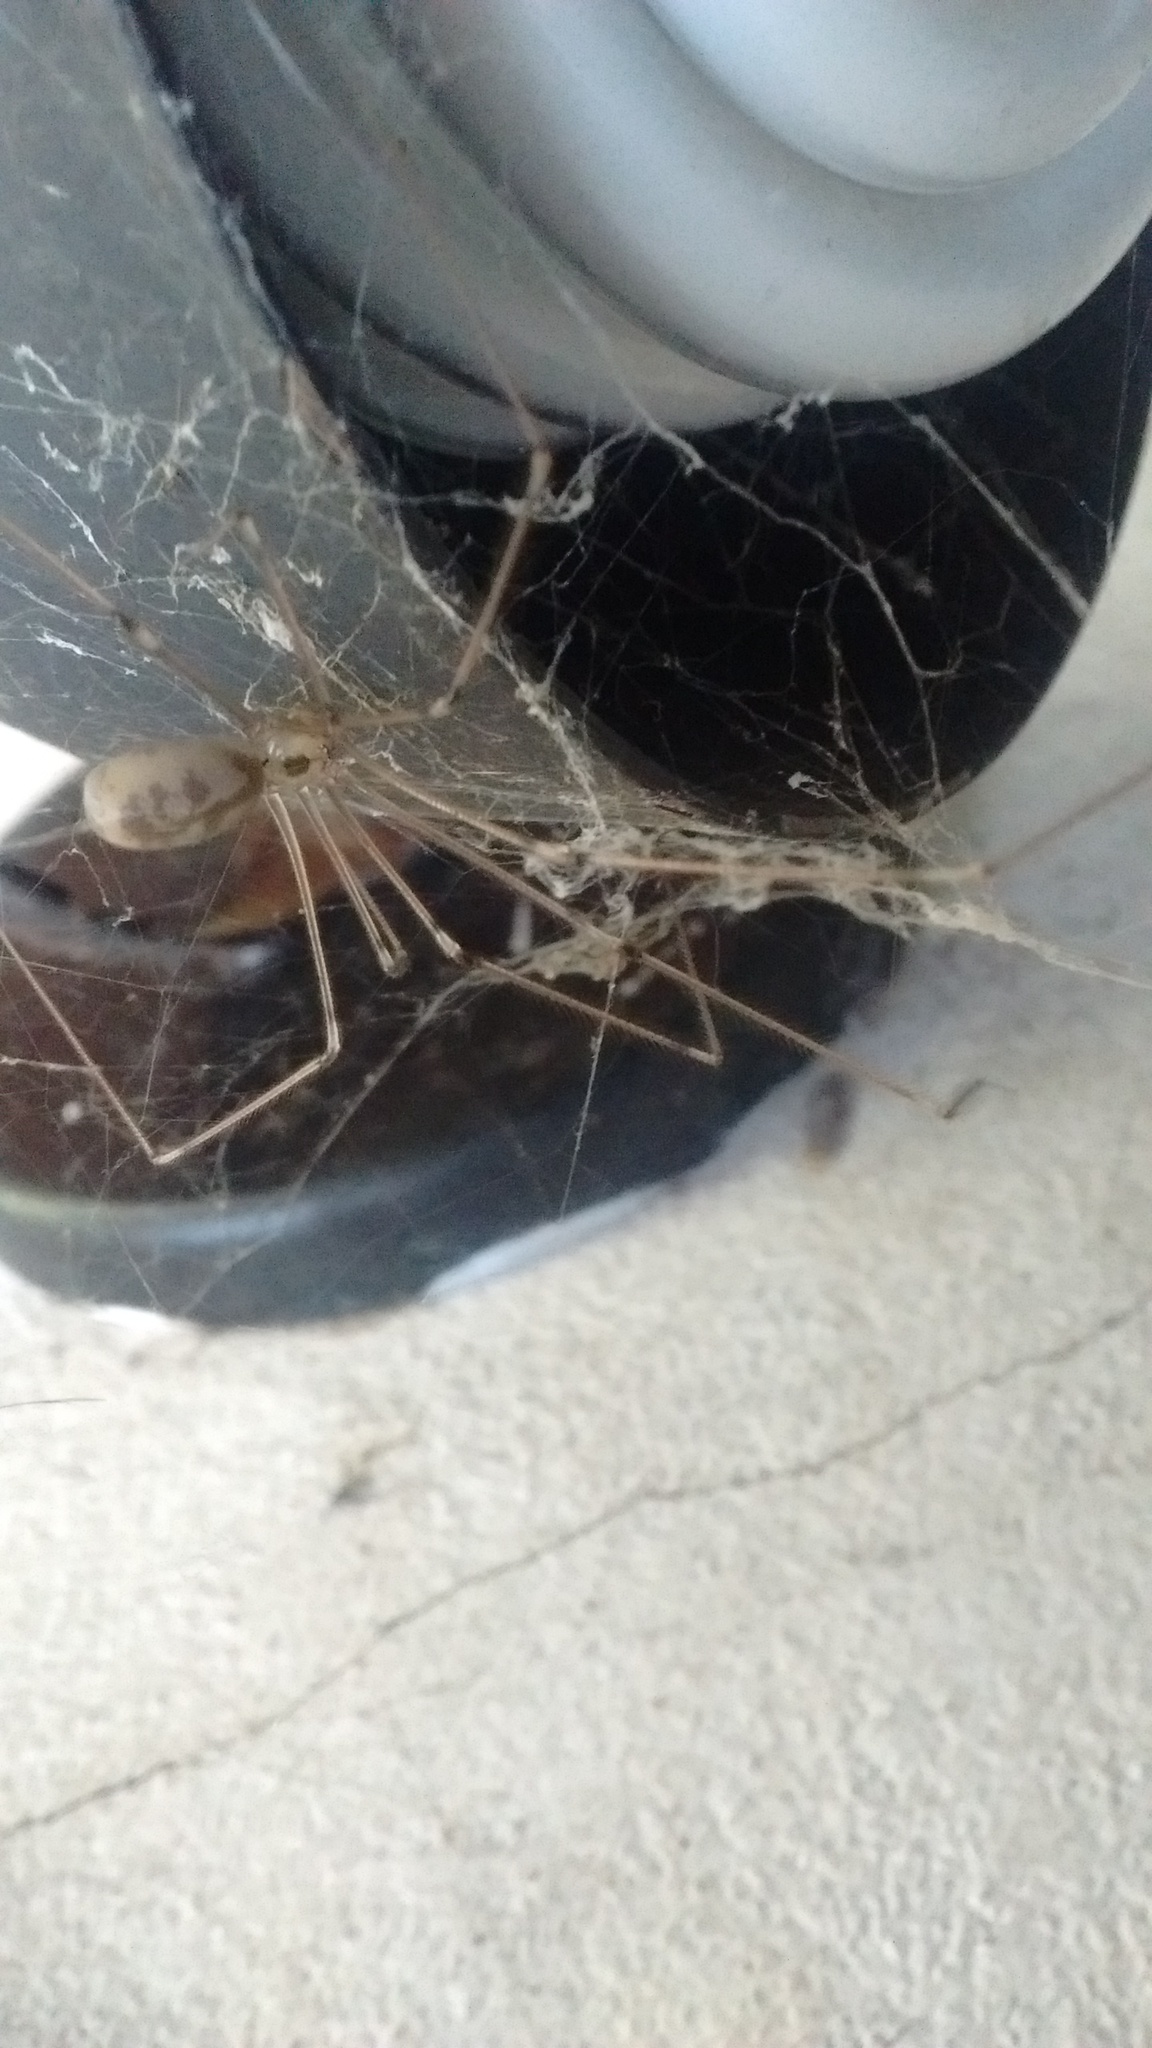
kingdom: Animalia
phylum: Arthropoda
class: Arachnida
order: Araneae
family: Pholcidae
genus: Pholcus
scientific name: Pholcus phalangioides
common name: Longbodied cellar spider
